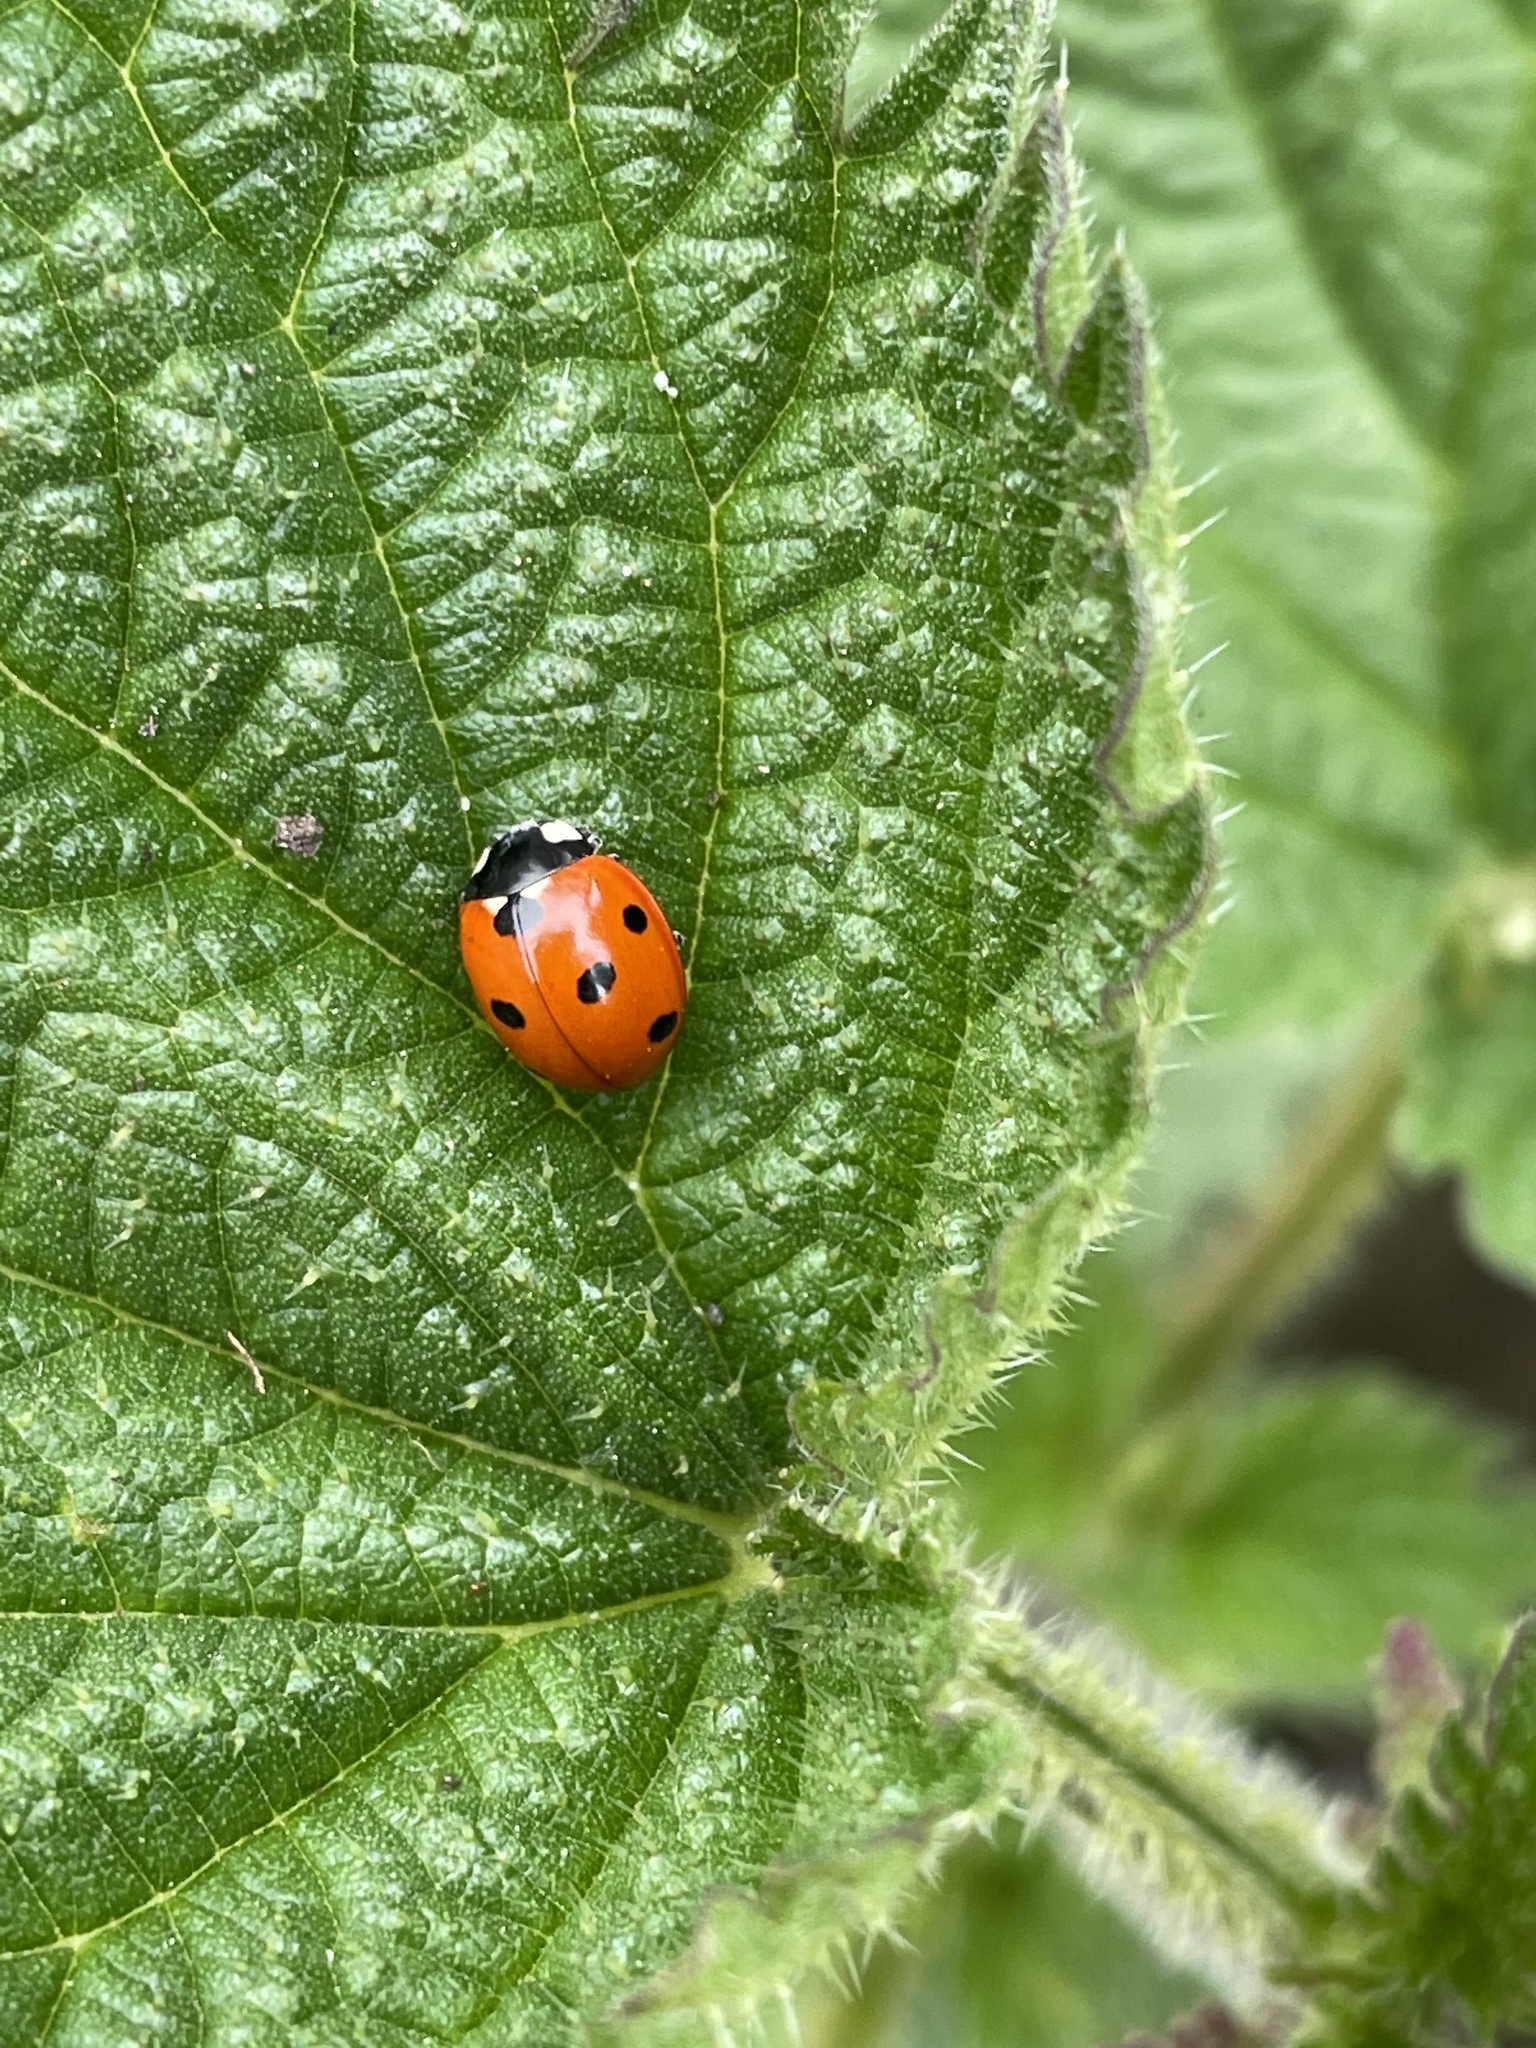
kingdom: Animalia
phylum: Arthropoda
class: Insecta
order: Coleoptera
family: Coccinellidae
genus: Coccinella
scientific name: Coccinella septempunctata
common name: Sevenspotted lady beetle
